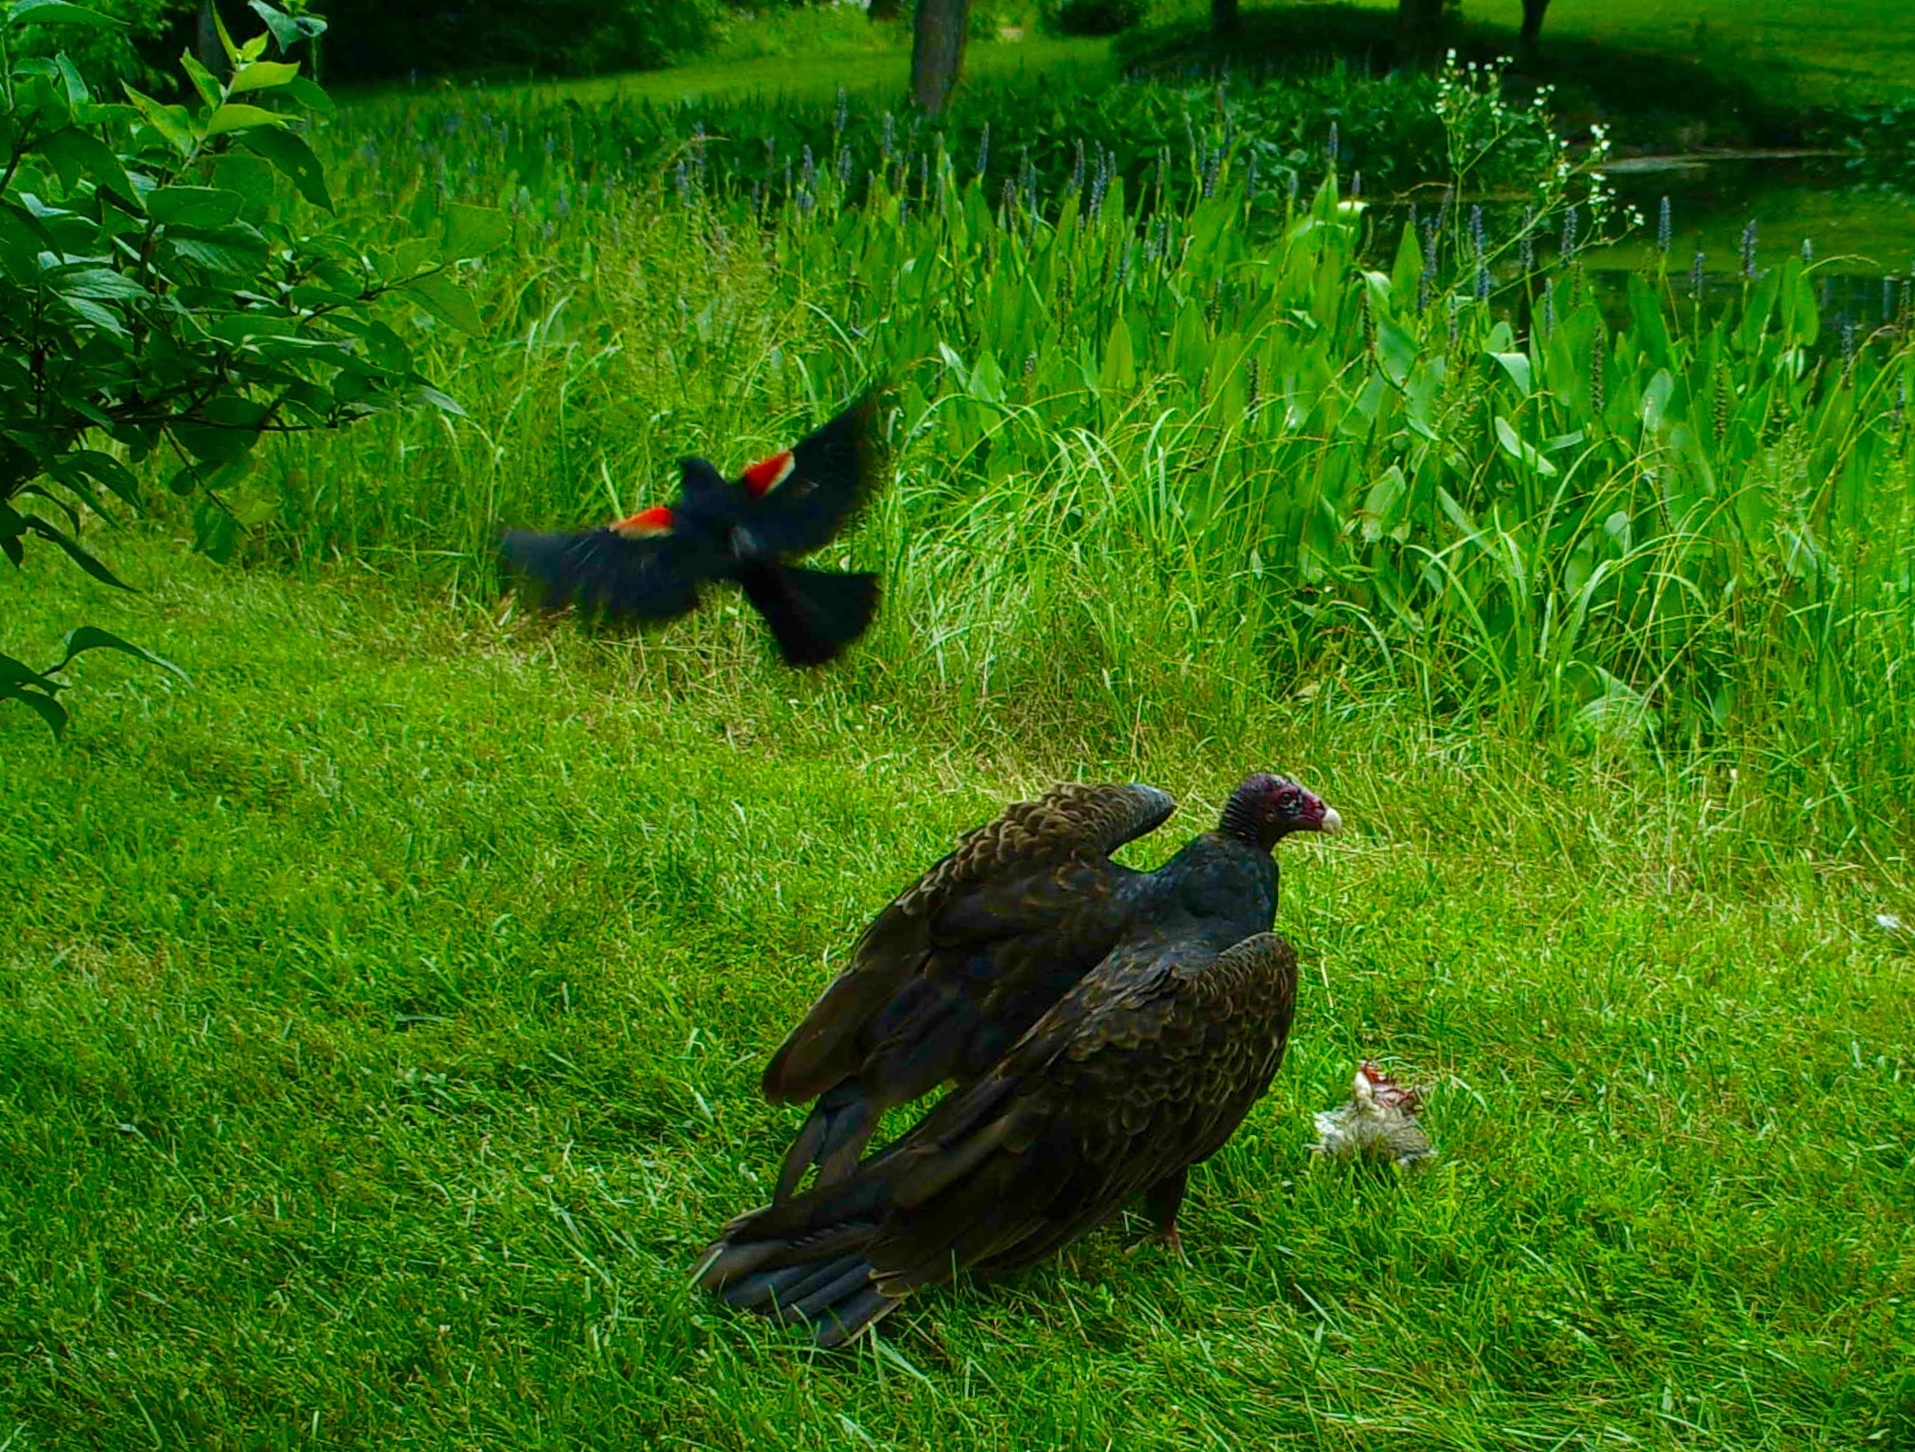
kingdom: Animalia
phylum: Chordata
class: Aves
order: Accipitriformes
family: Cathartidae
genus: Cathartes
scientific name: Cathartes aura
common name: Turkey vulture
